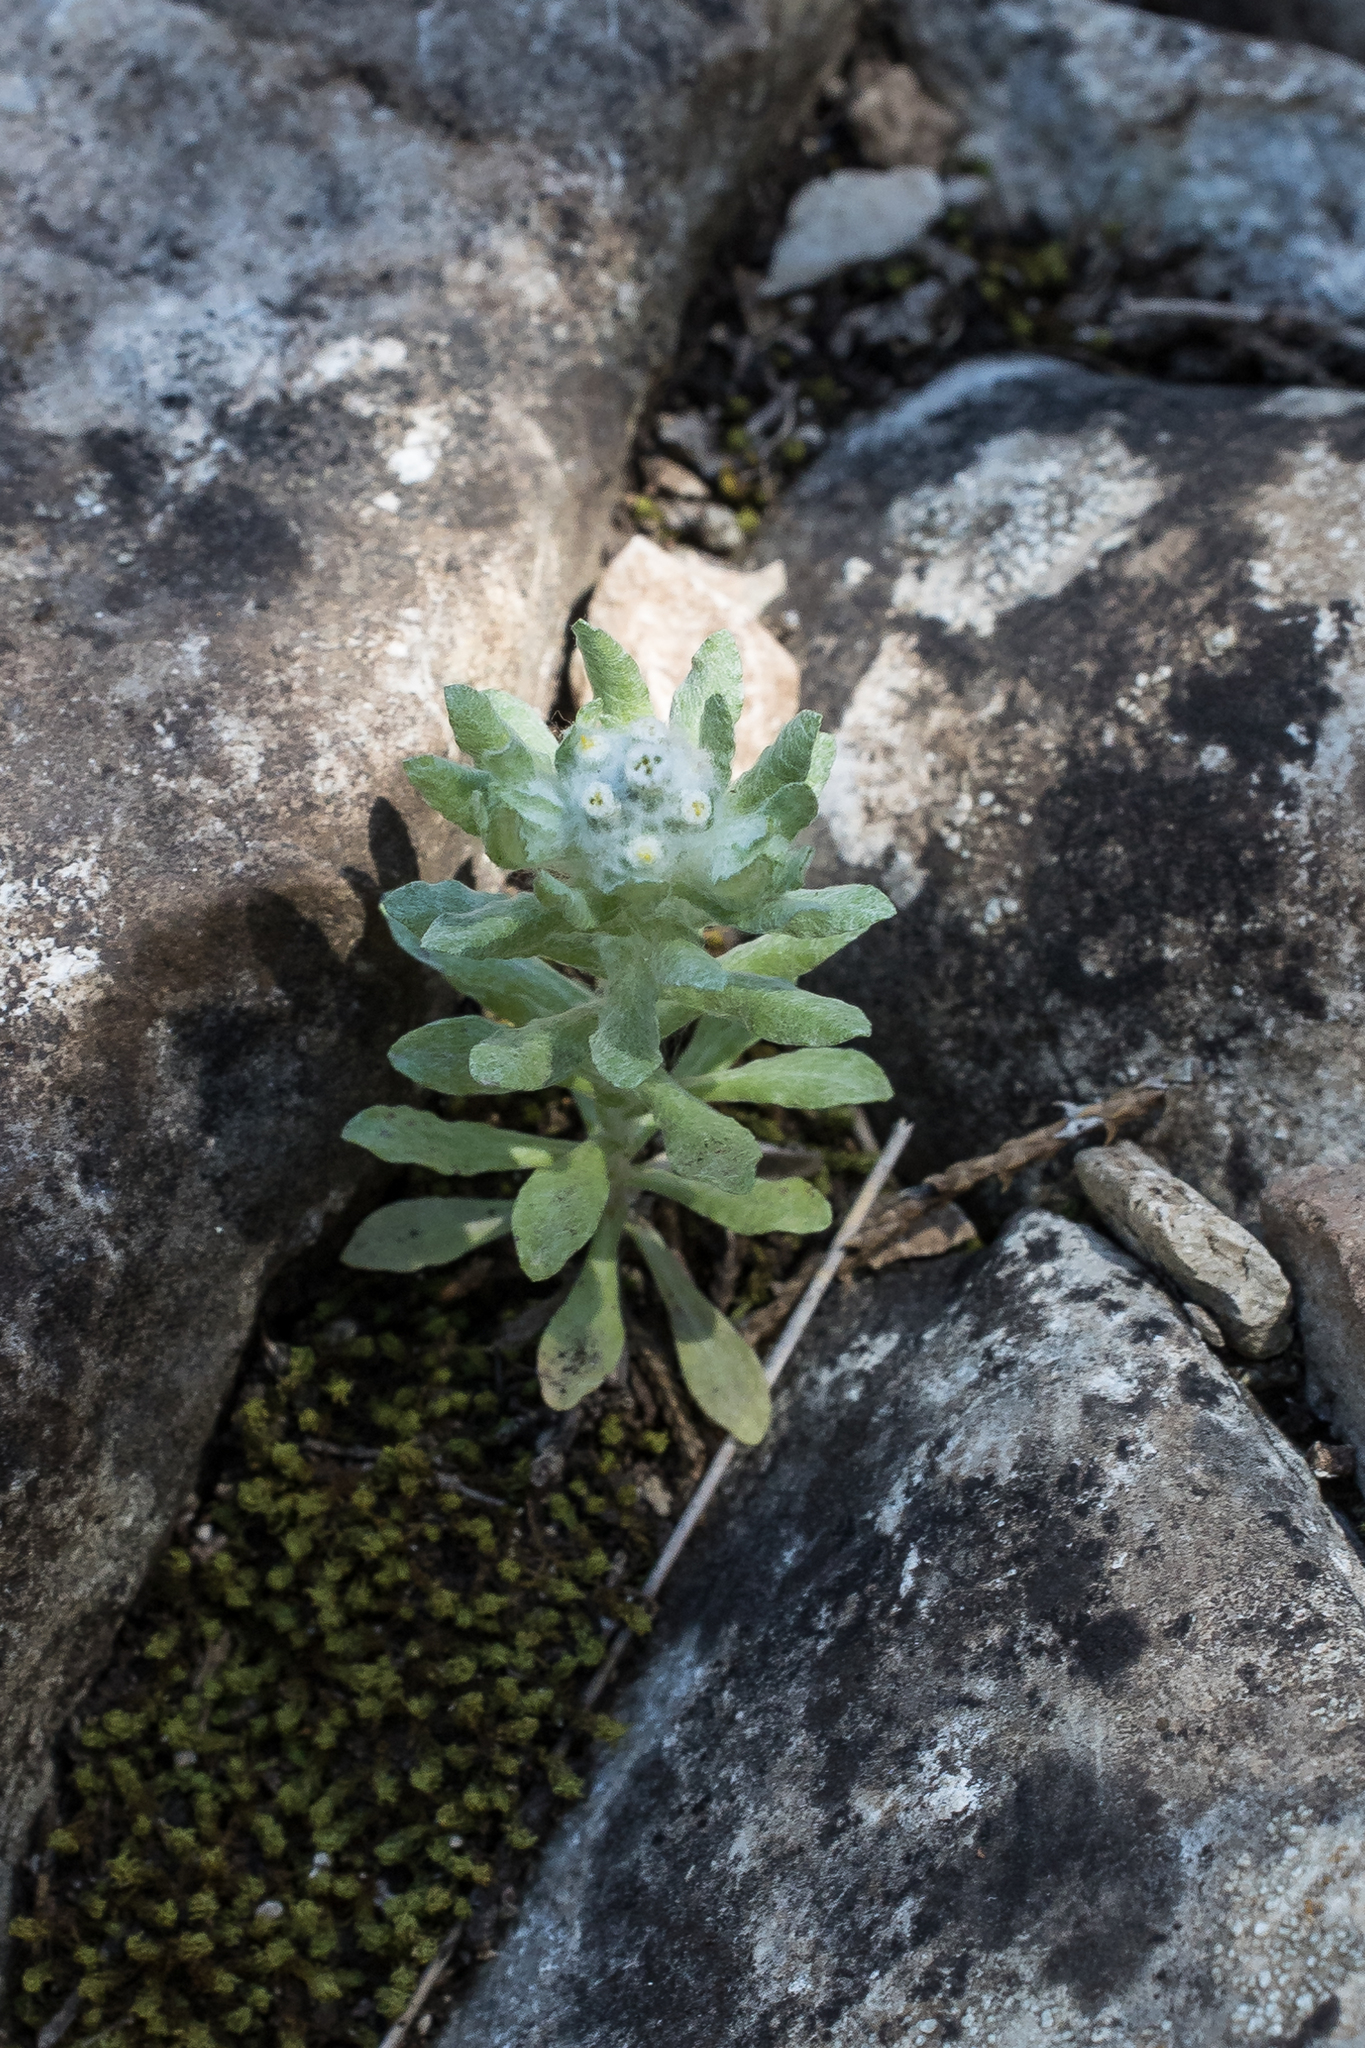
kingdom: Plantae
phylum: Tracheophyta
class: Magnoliopsida
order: Asterales
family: Asteraceae
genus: Diaperia
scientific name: Diaperia verna
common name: Many-stem rabbit-tobacco
